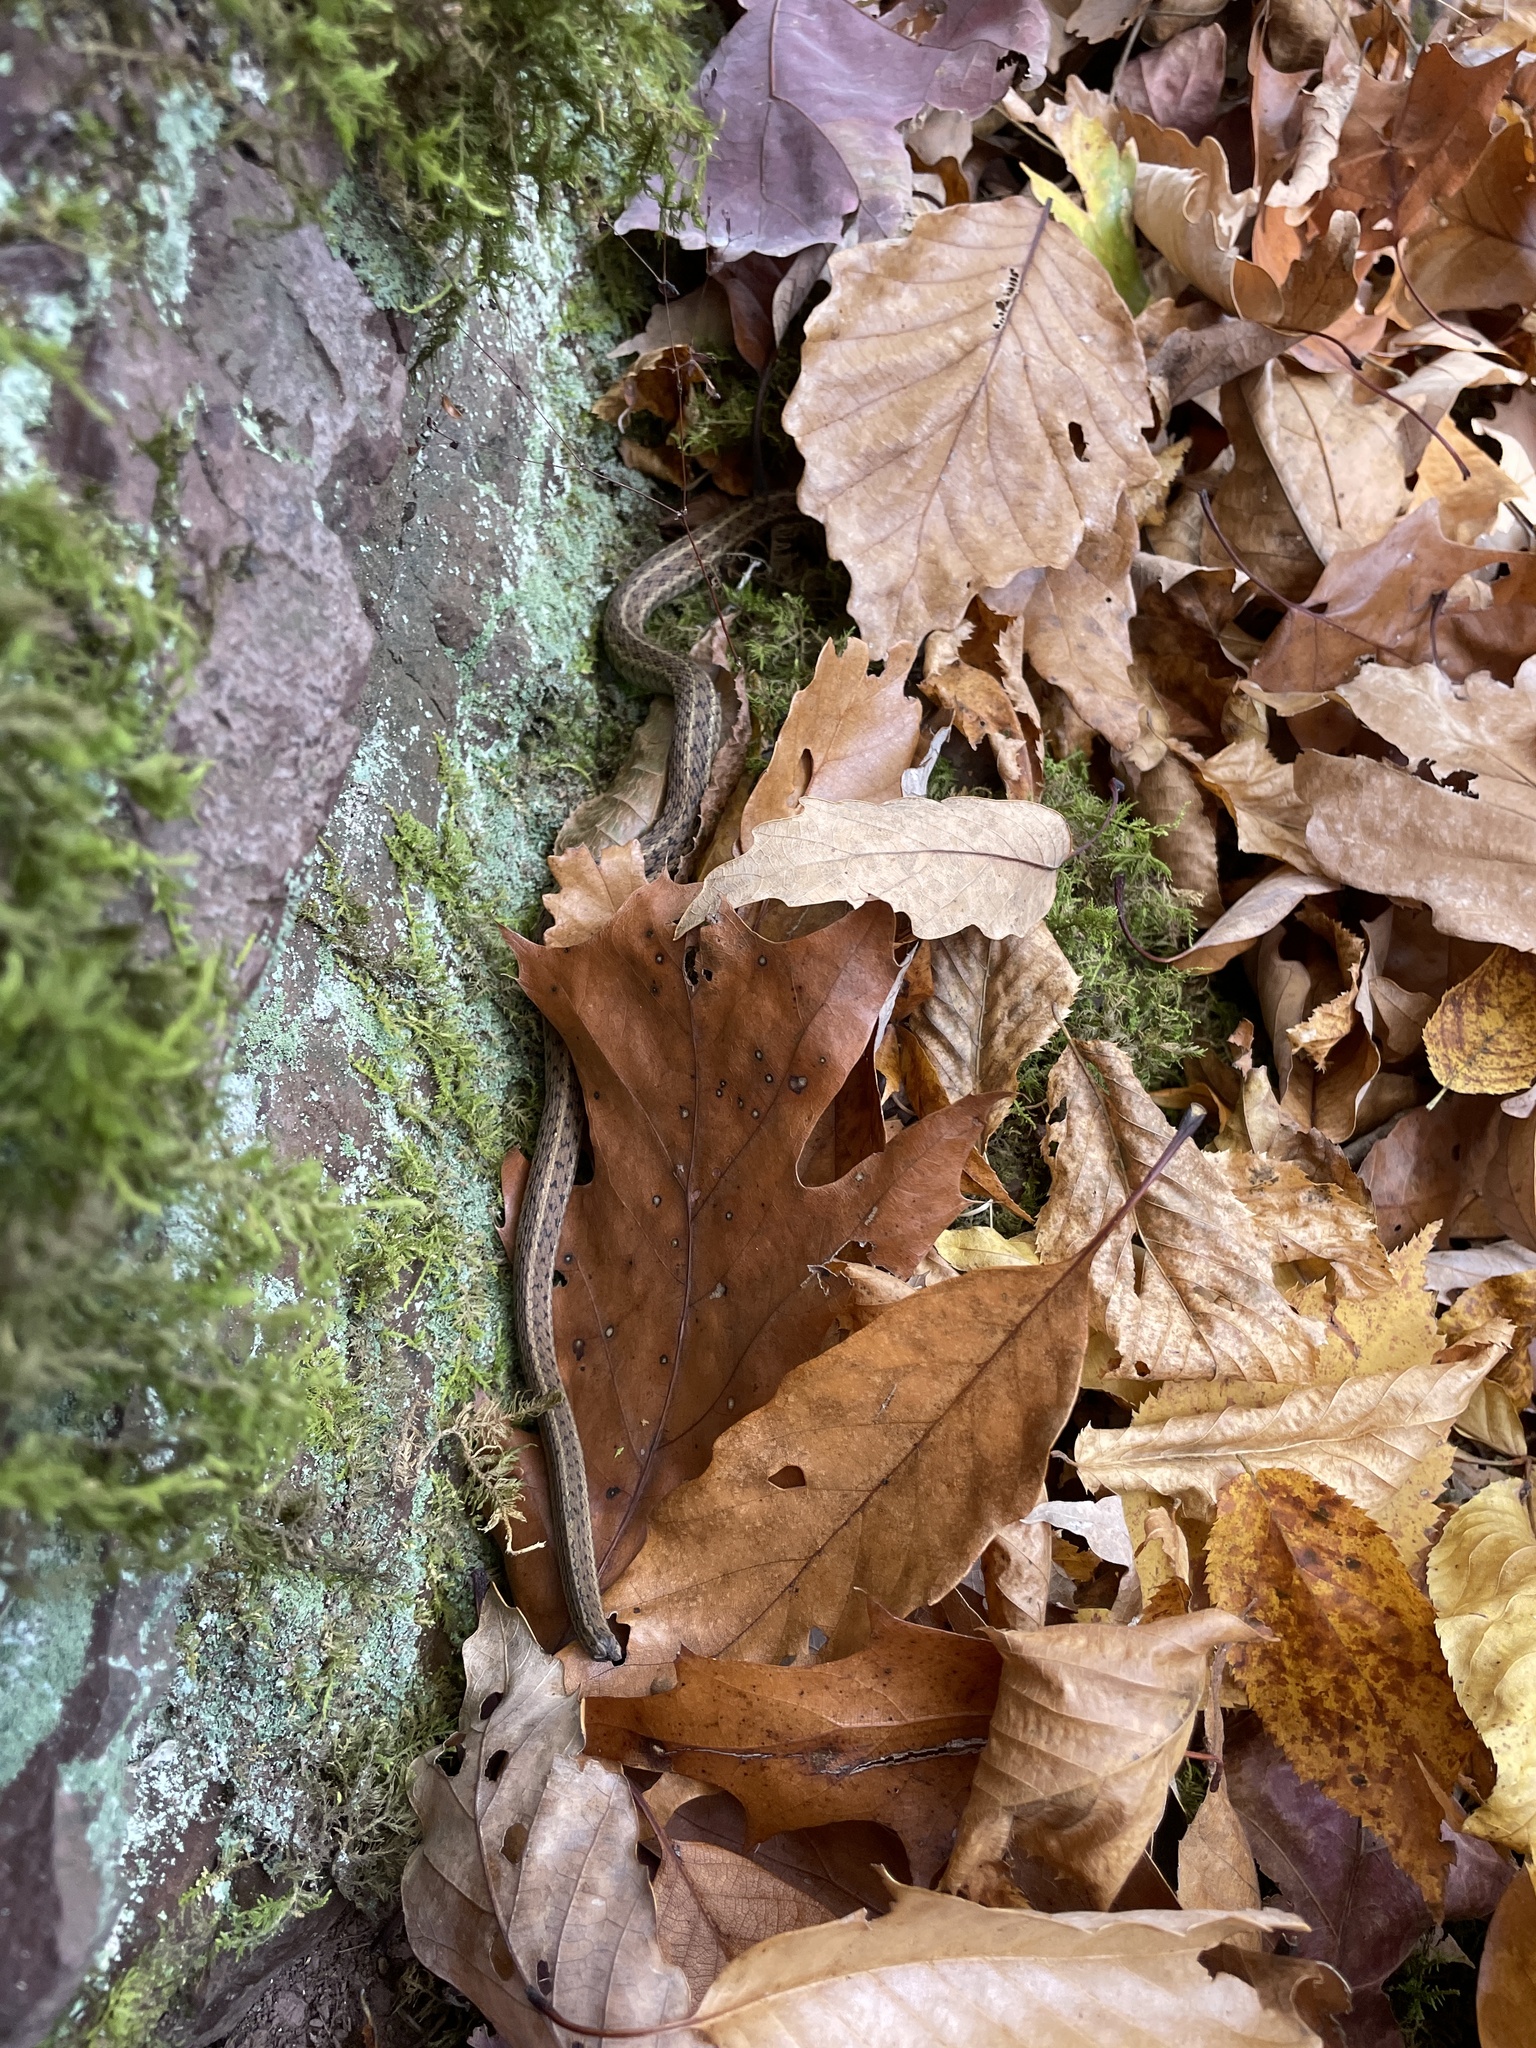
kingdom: Animalia
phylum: Chordata
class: Squamata
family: Colubridae
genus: Thamnophis
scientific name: Thamnophis sirtalis
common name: Common garter snake
